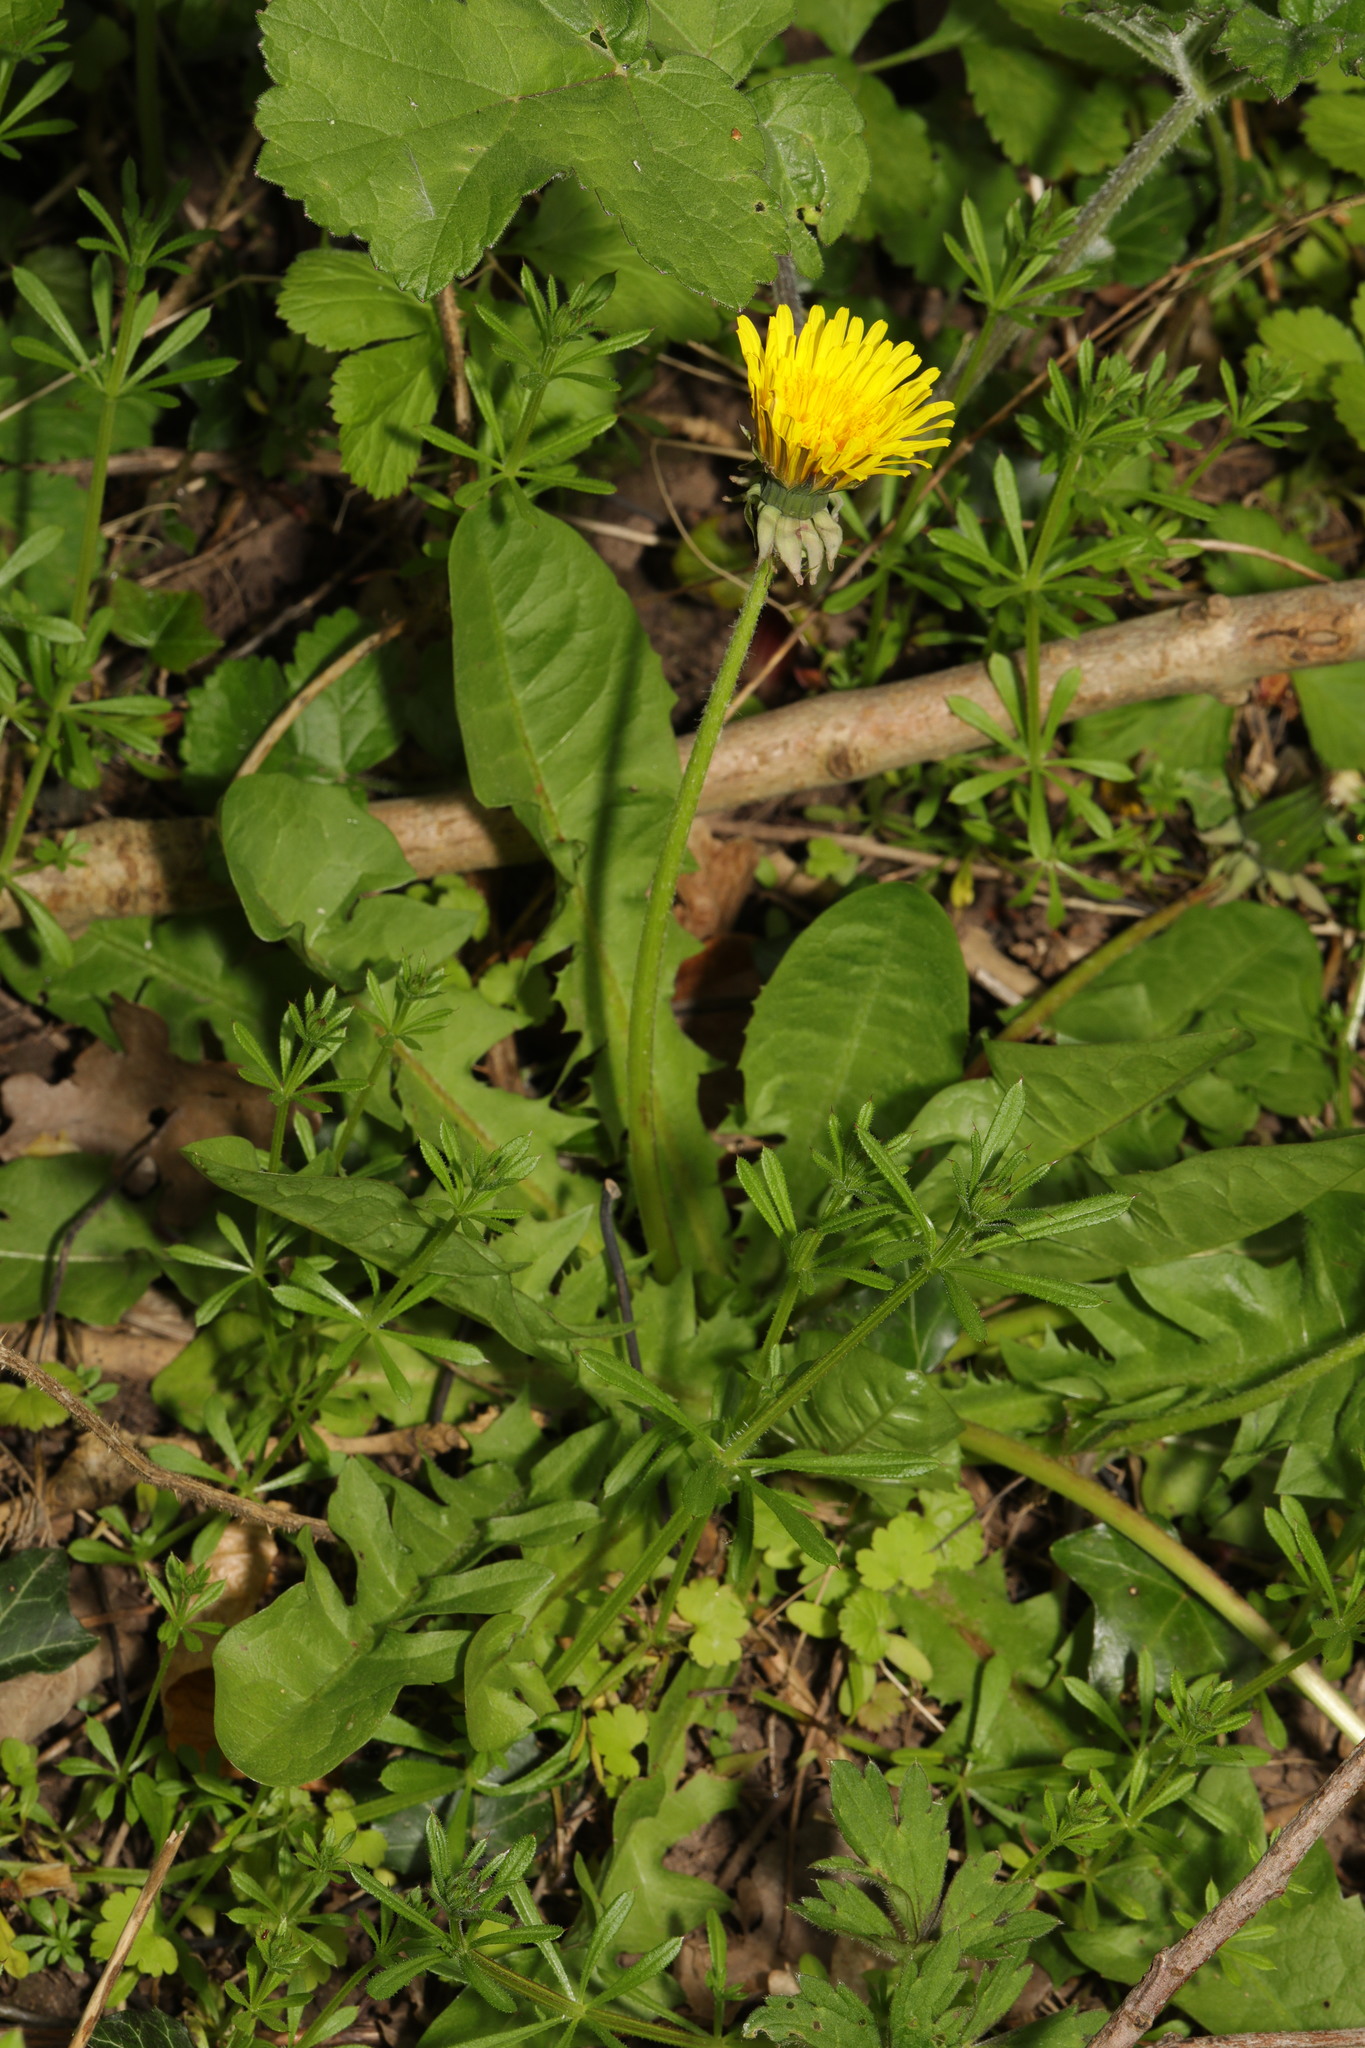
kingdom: Plantae
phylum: Tracheophyta
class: Magnoliopsida
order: Asterales
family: Asteraceae
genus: Taraxacum
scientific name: Taraxacum officinale
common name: Common dandelion
